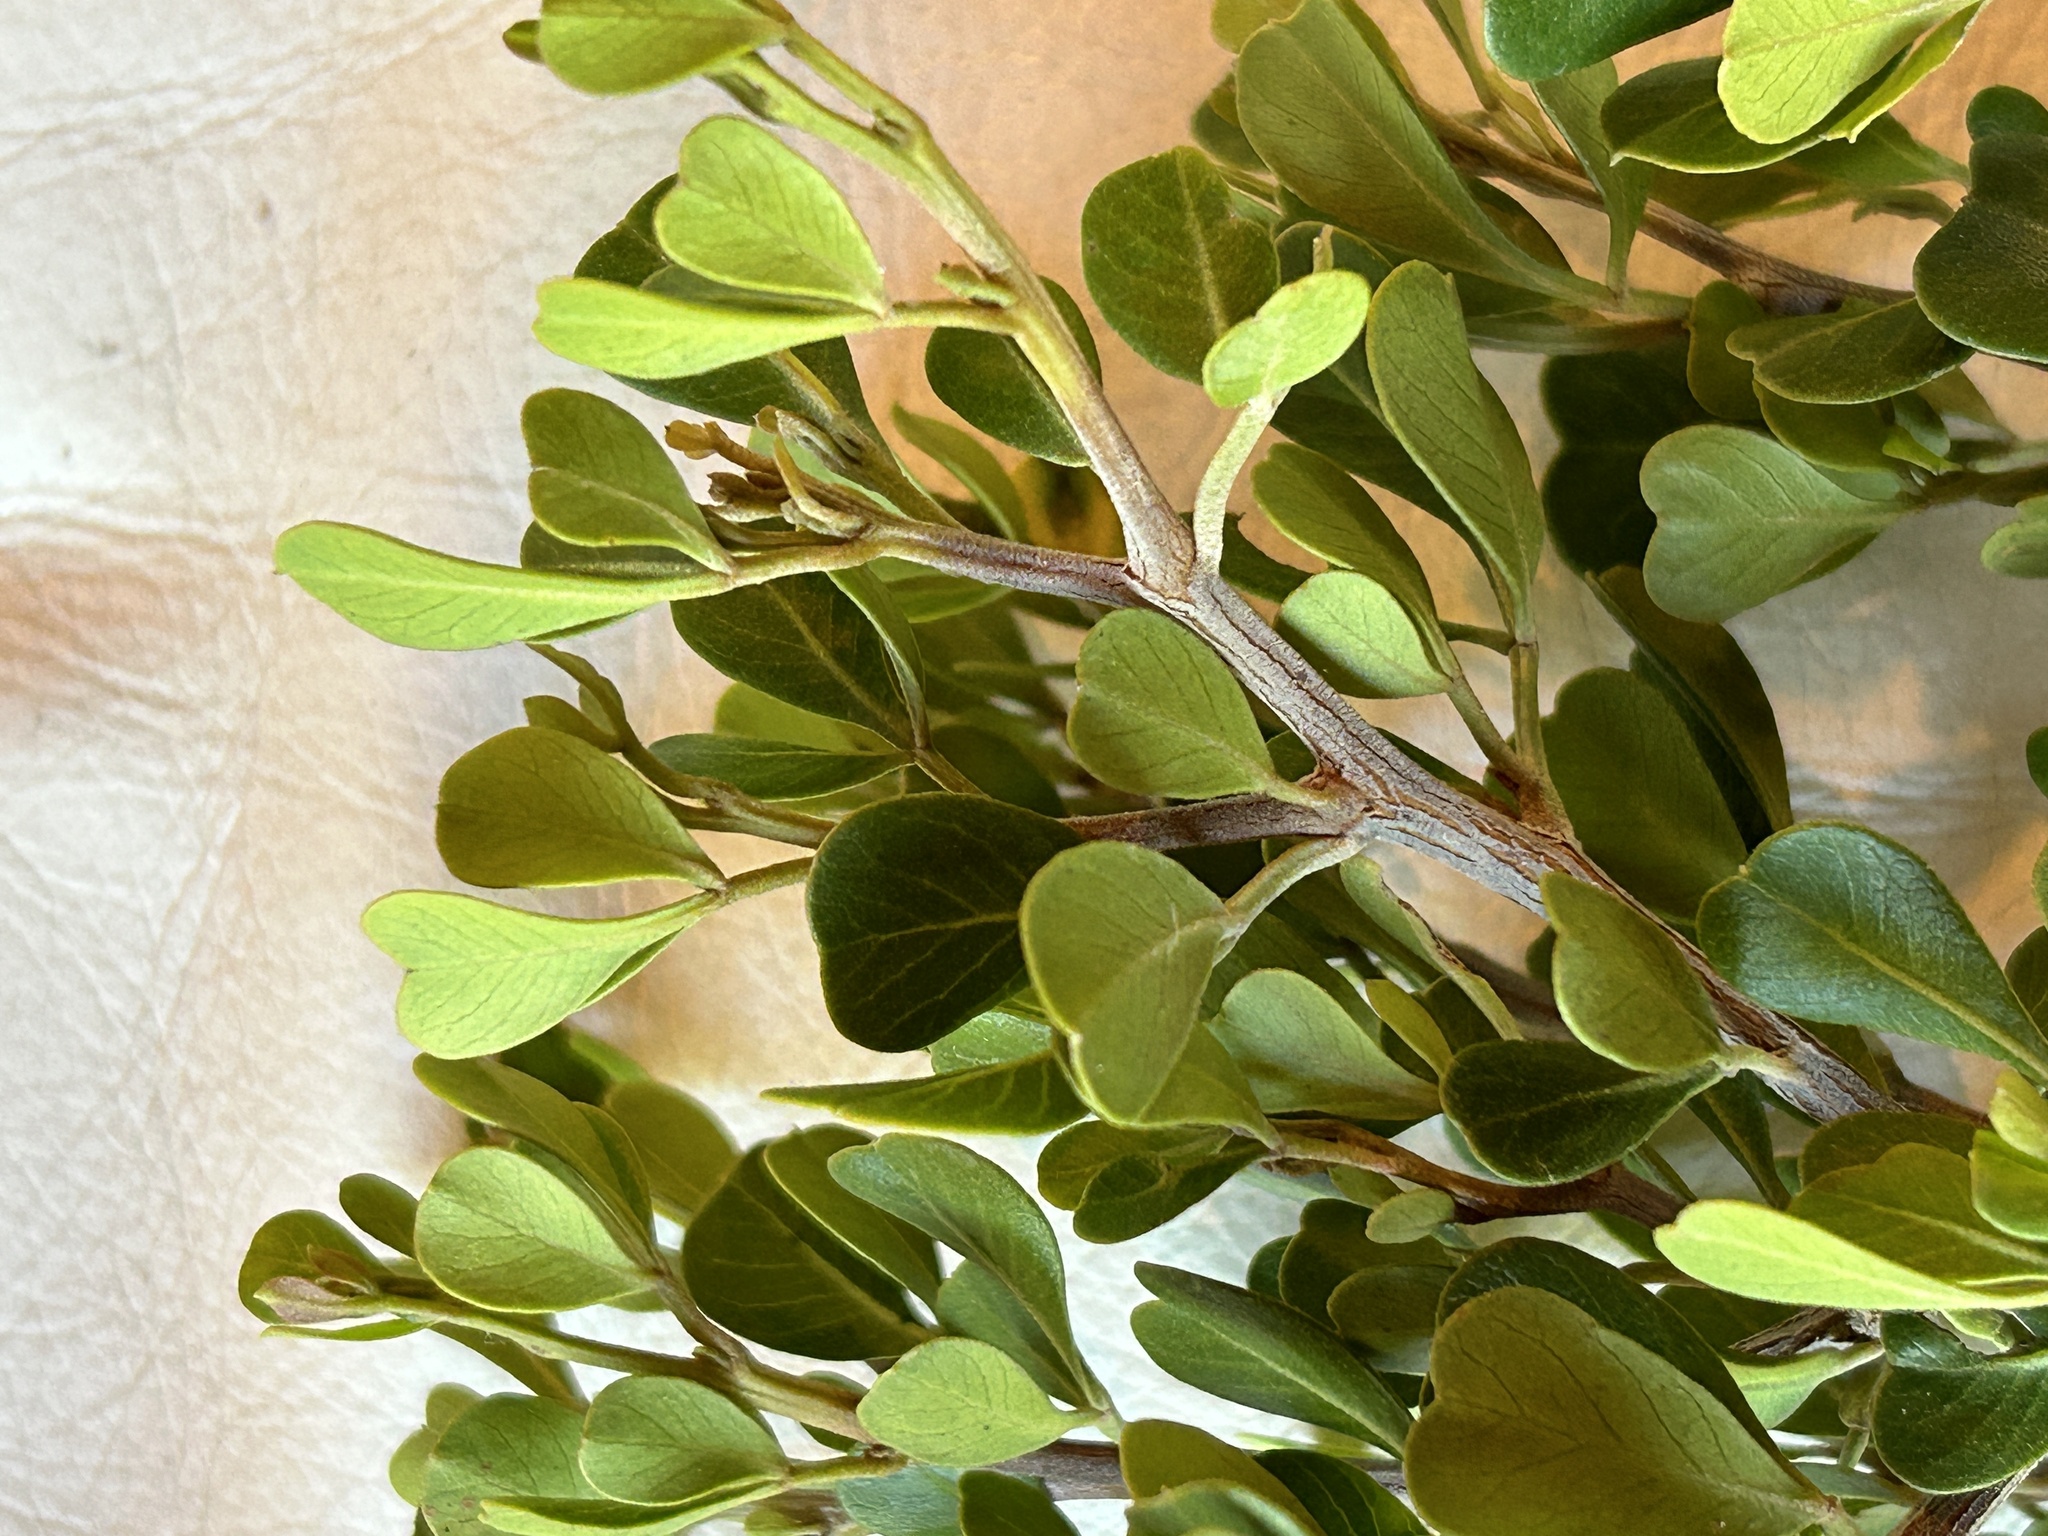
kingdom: Plantae
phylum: Tracheophyta
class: Magnoliopsida
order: Sapindales
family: Anacardiaceae
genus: Searsia
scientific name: Searsia glauca
